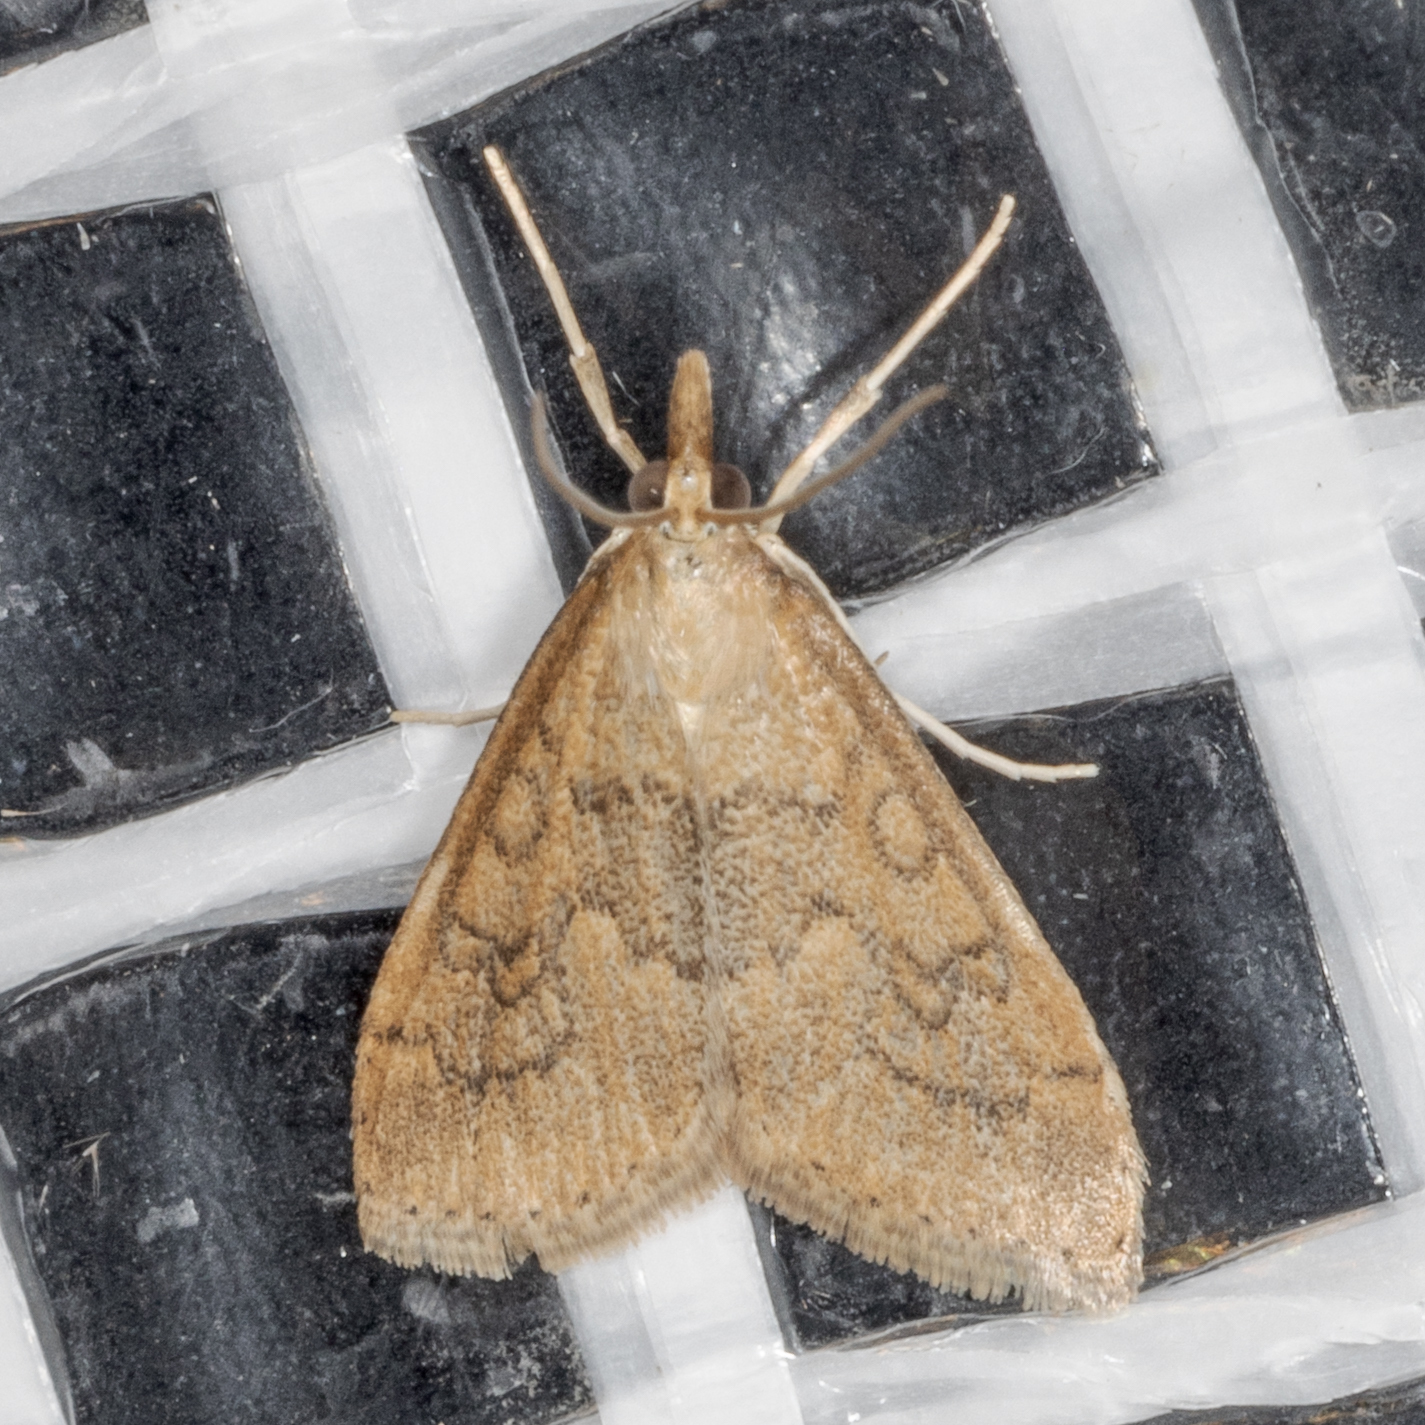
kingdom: Animalia
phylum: Arthropoda
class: Insecta
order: Lepidoptera
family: Crambidae
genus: Udea
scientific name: Udea rubigalis
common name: Celery leaftier moth
